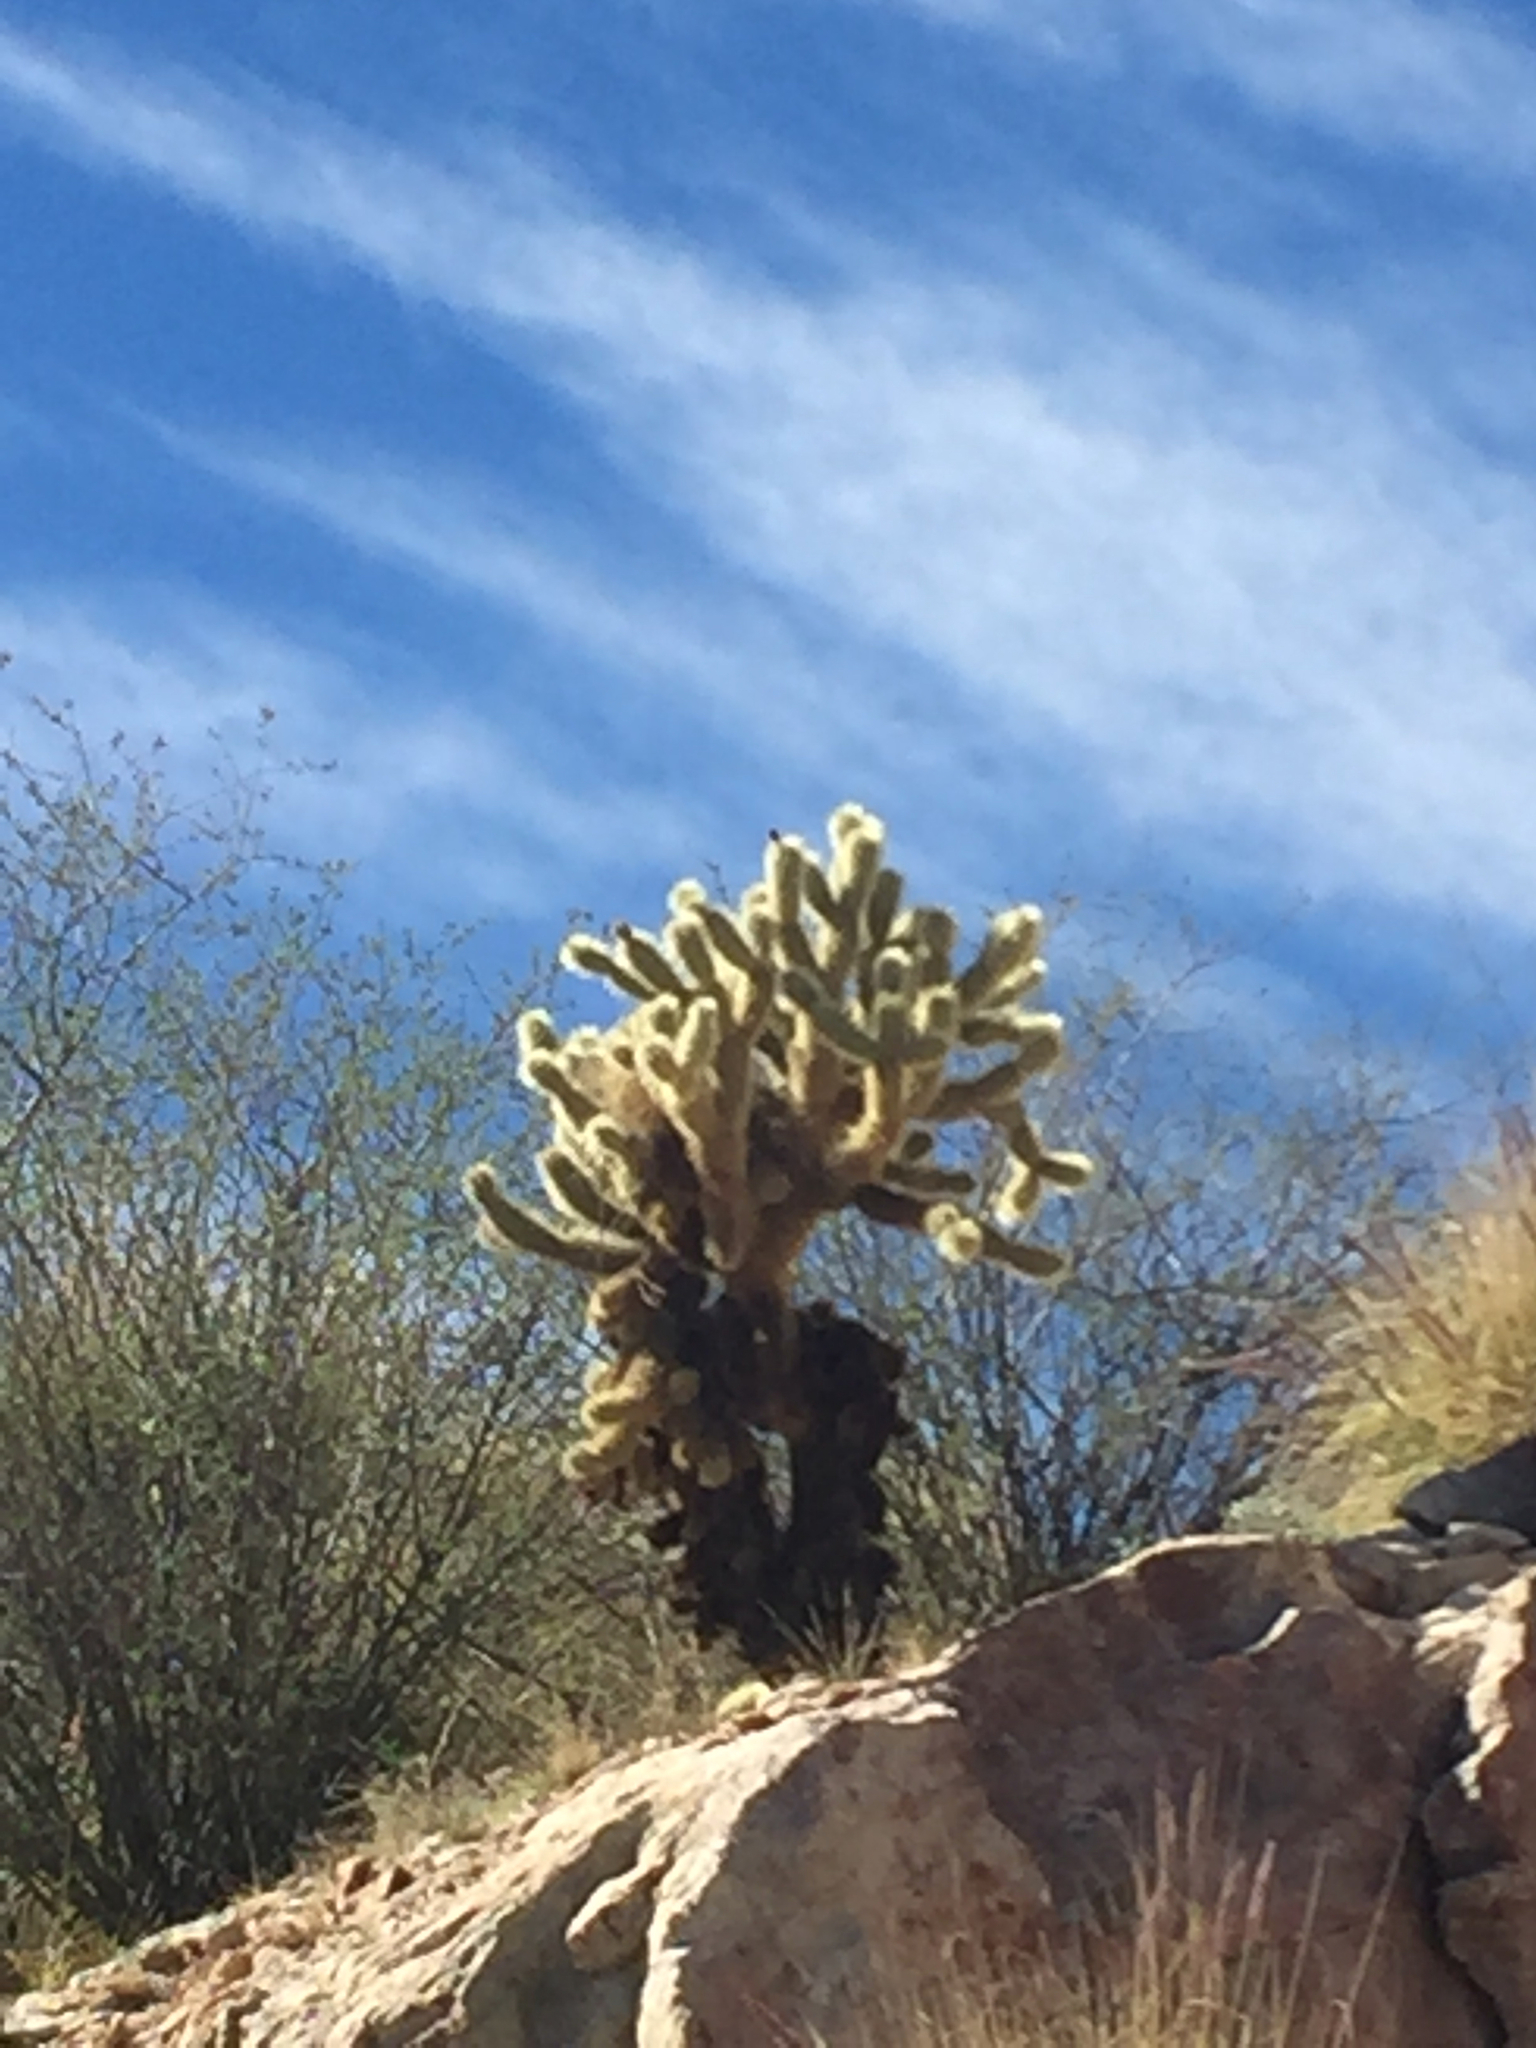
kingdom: Plantae
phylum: Tracheophyta
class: Magnoliopsida
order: Caryophyllales
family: Cactaceae
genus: Cylindropuntia
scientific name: Cylindropuntia fosbergii
